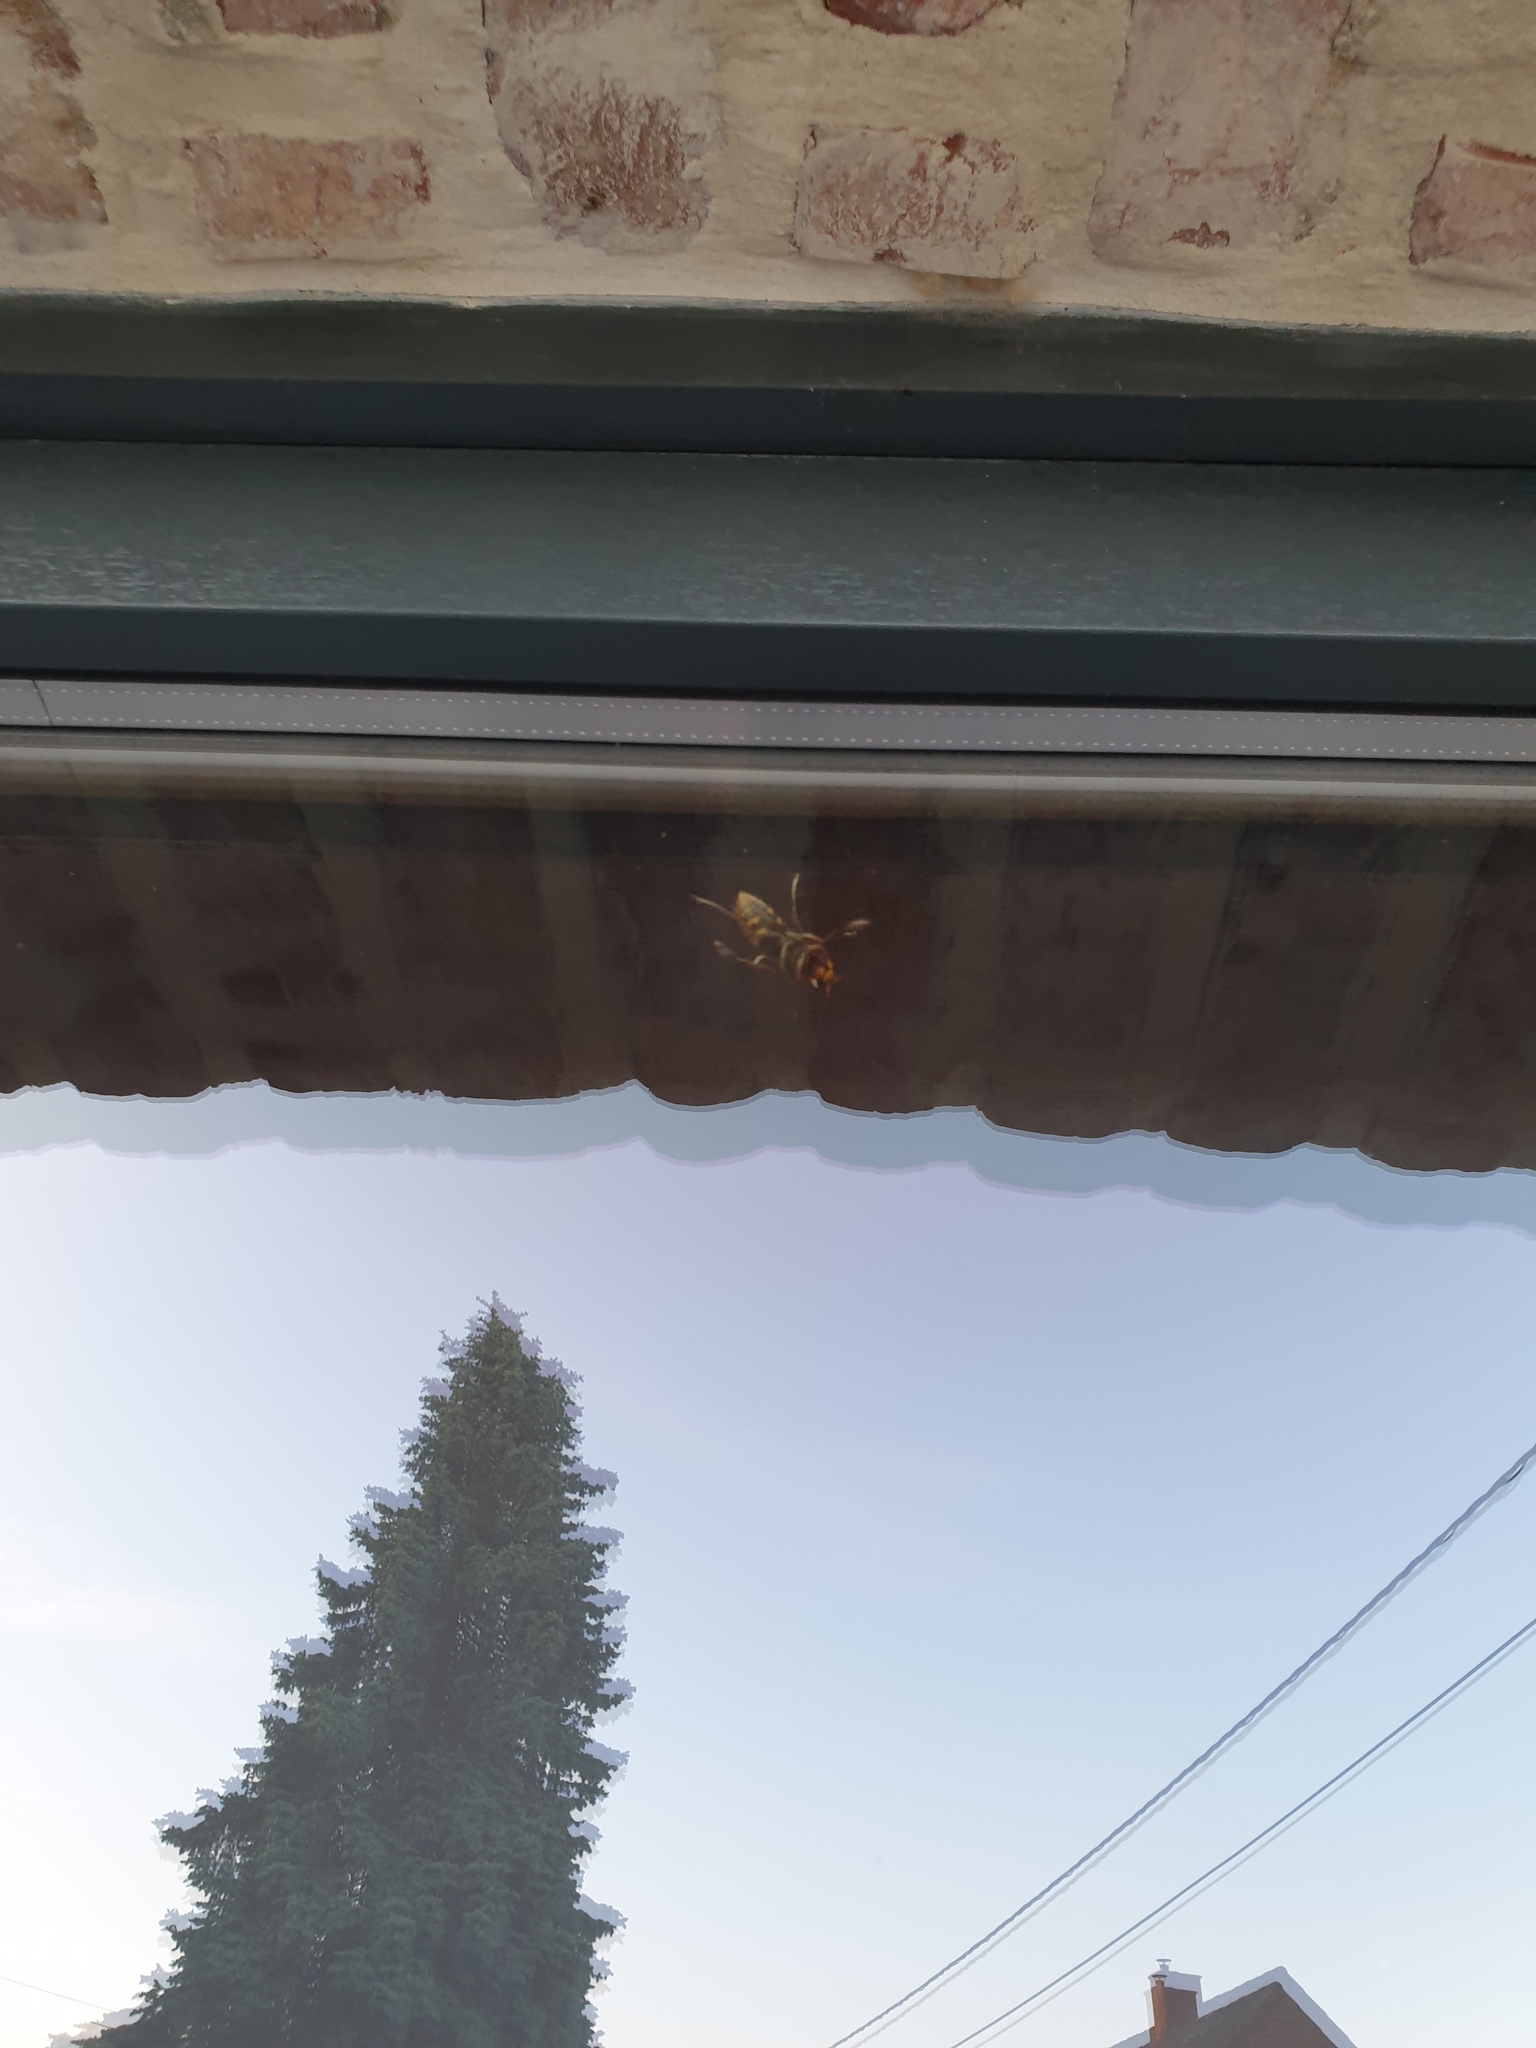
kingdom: Animalia
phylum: Arthropoda
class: Insecta
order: Hymenoptera
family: Vespidae
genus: Vespa
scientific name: Vespa crabro
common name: Hornet
